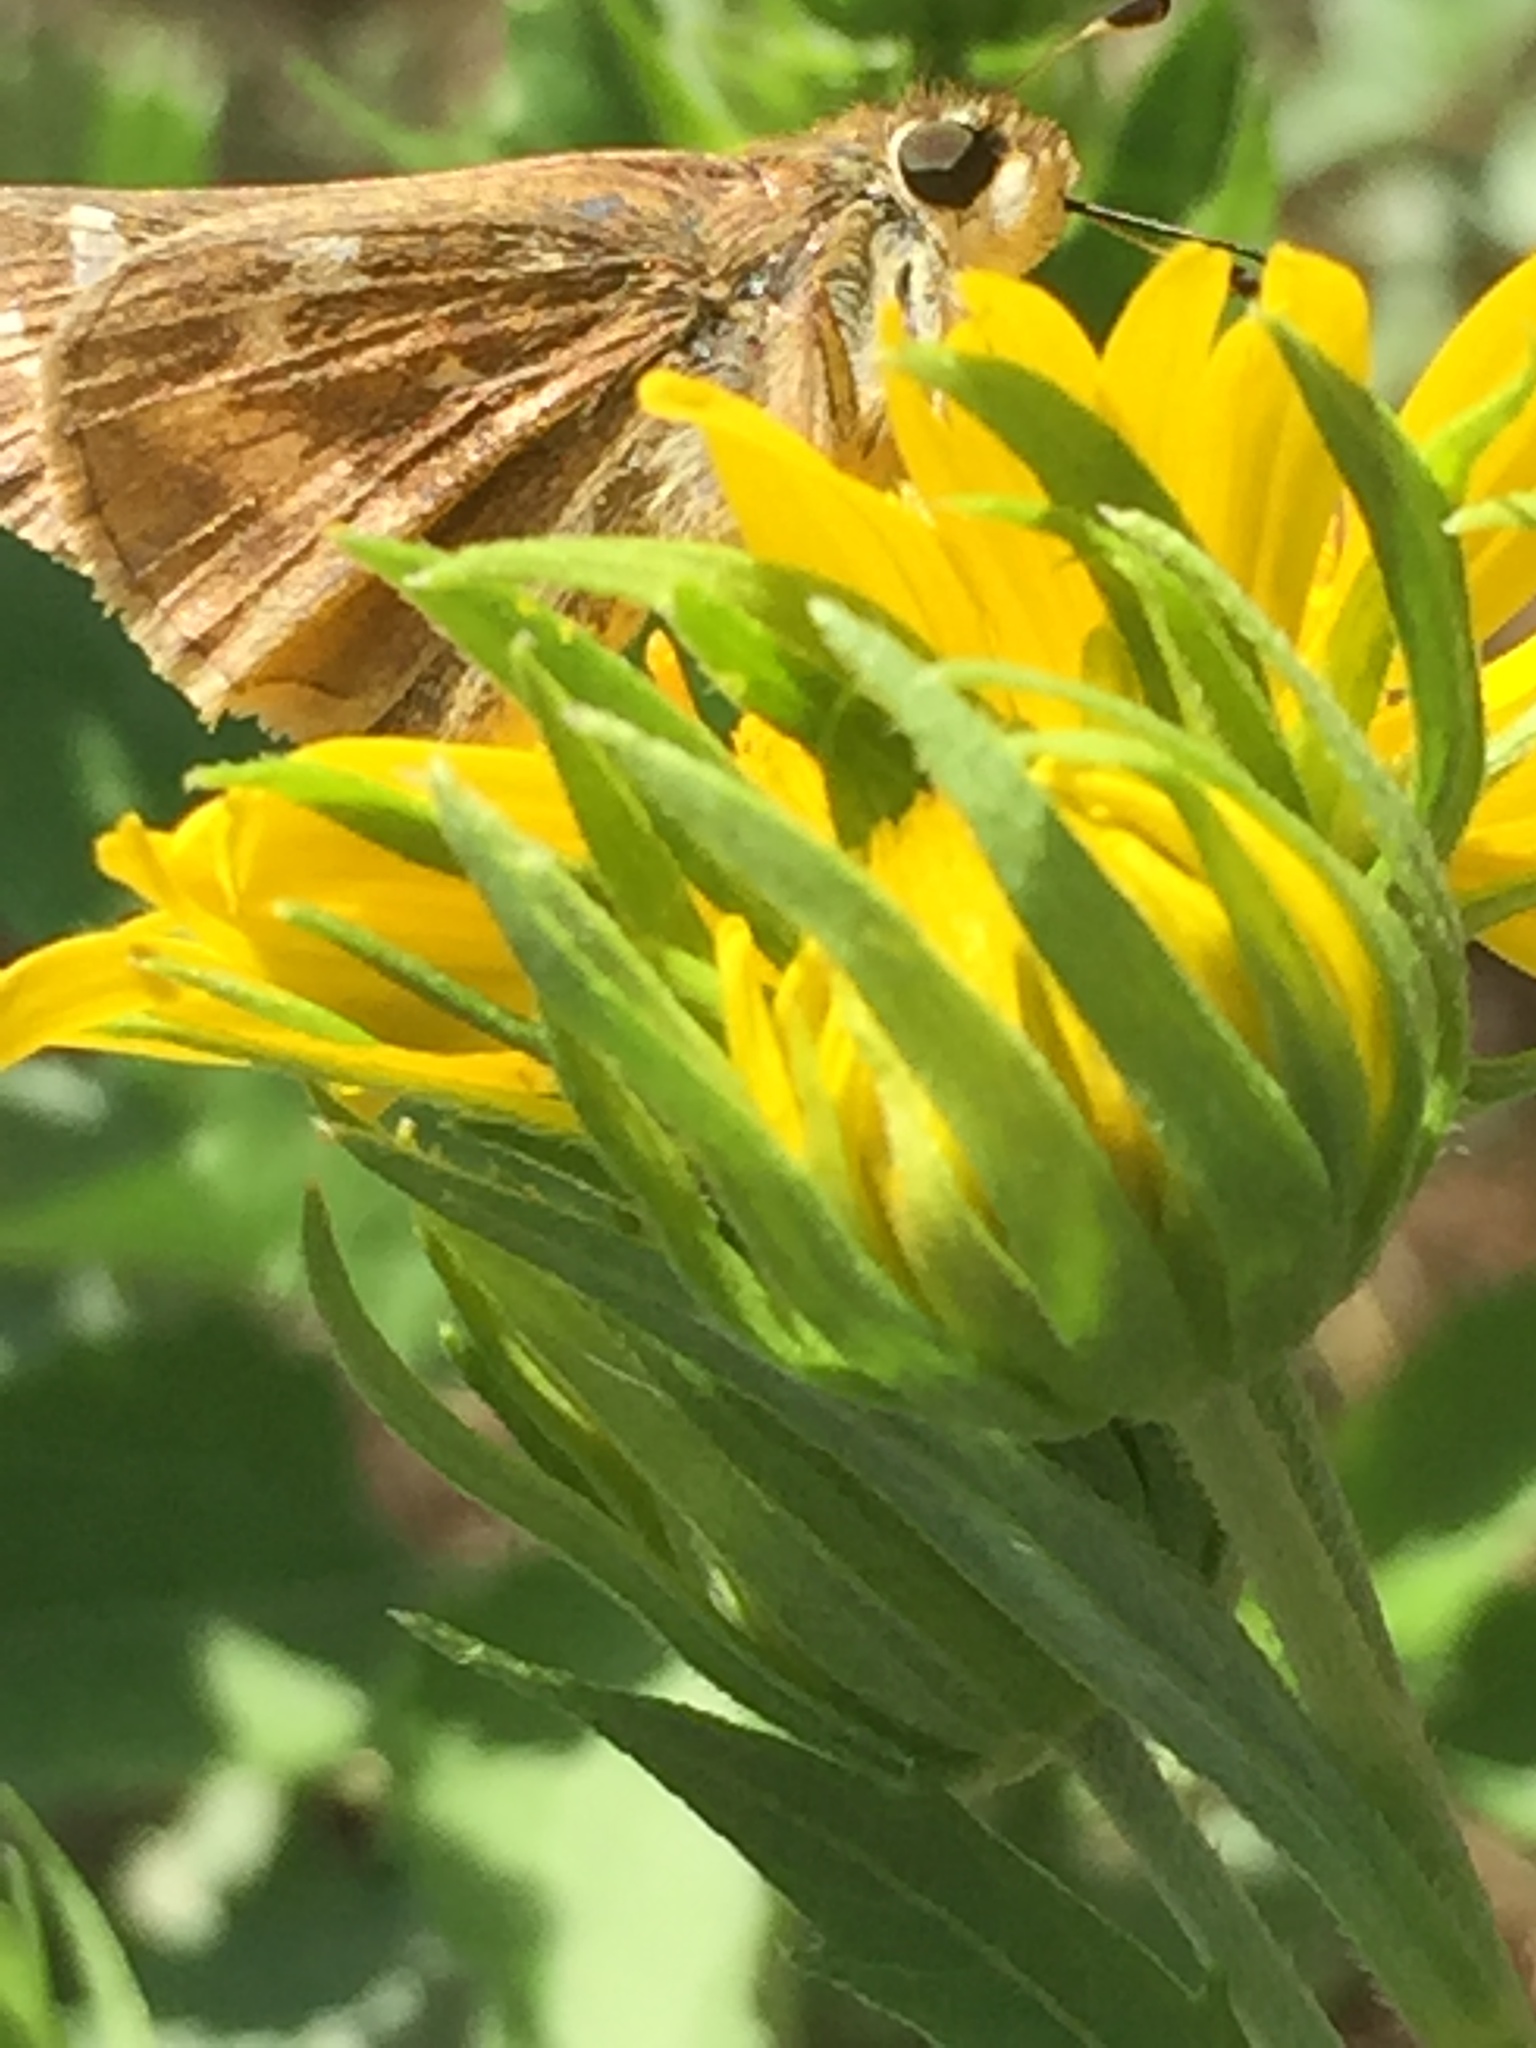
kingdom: Animalia
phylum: Arthropoda
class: Insecta
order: Lepidoptera
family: Hesperiidae
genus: Atalopedes
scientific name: Atalopedes
